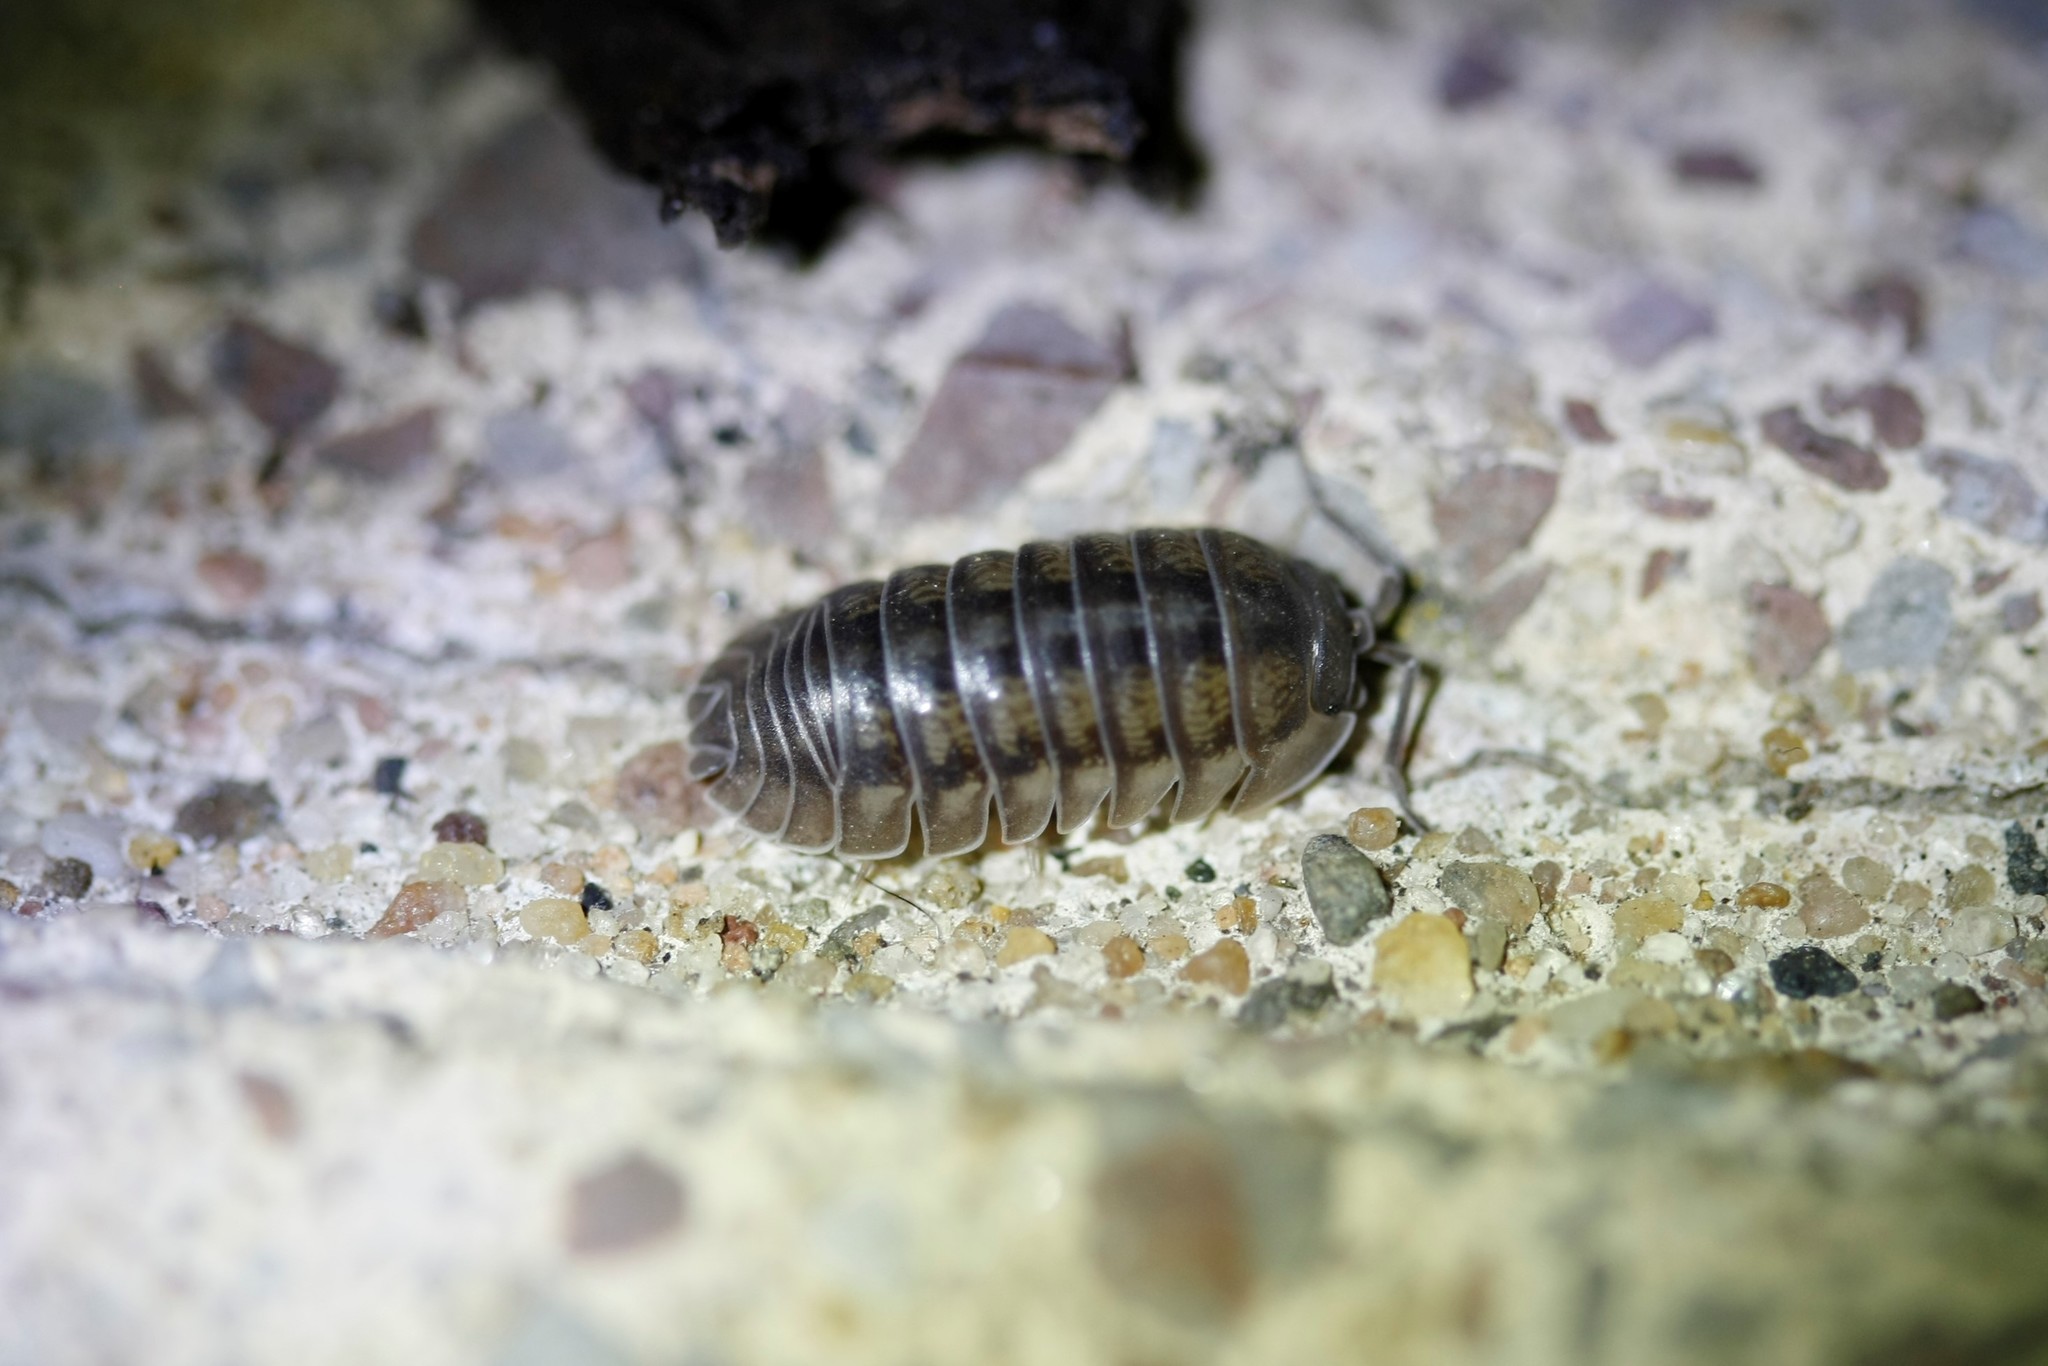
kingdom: Animalia
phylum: Arthropoda
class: Malacostraca
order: Isopoda
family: Armadillidiidae
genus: Armadillidium
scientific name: Armadillidium nasatum
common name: Isopod
